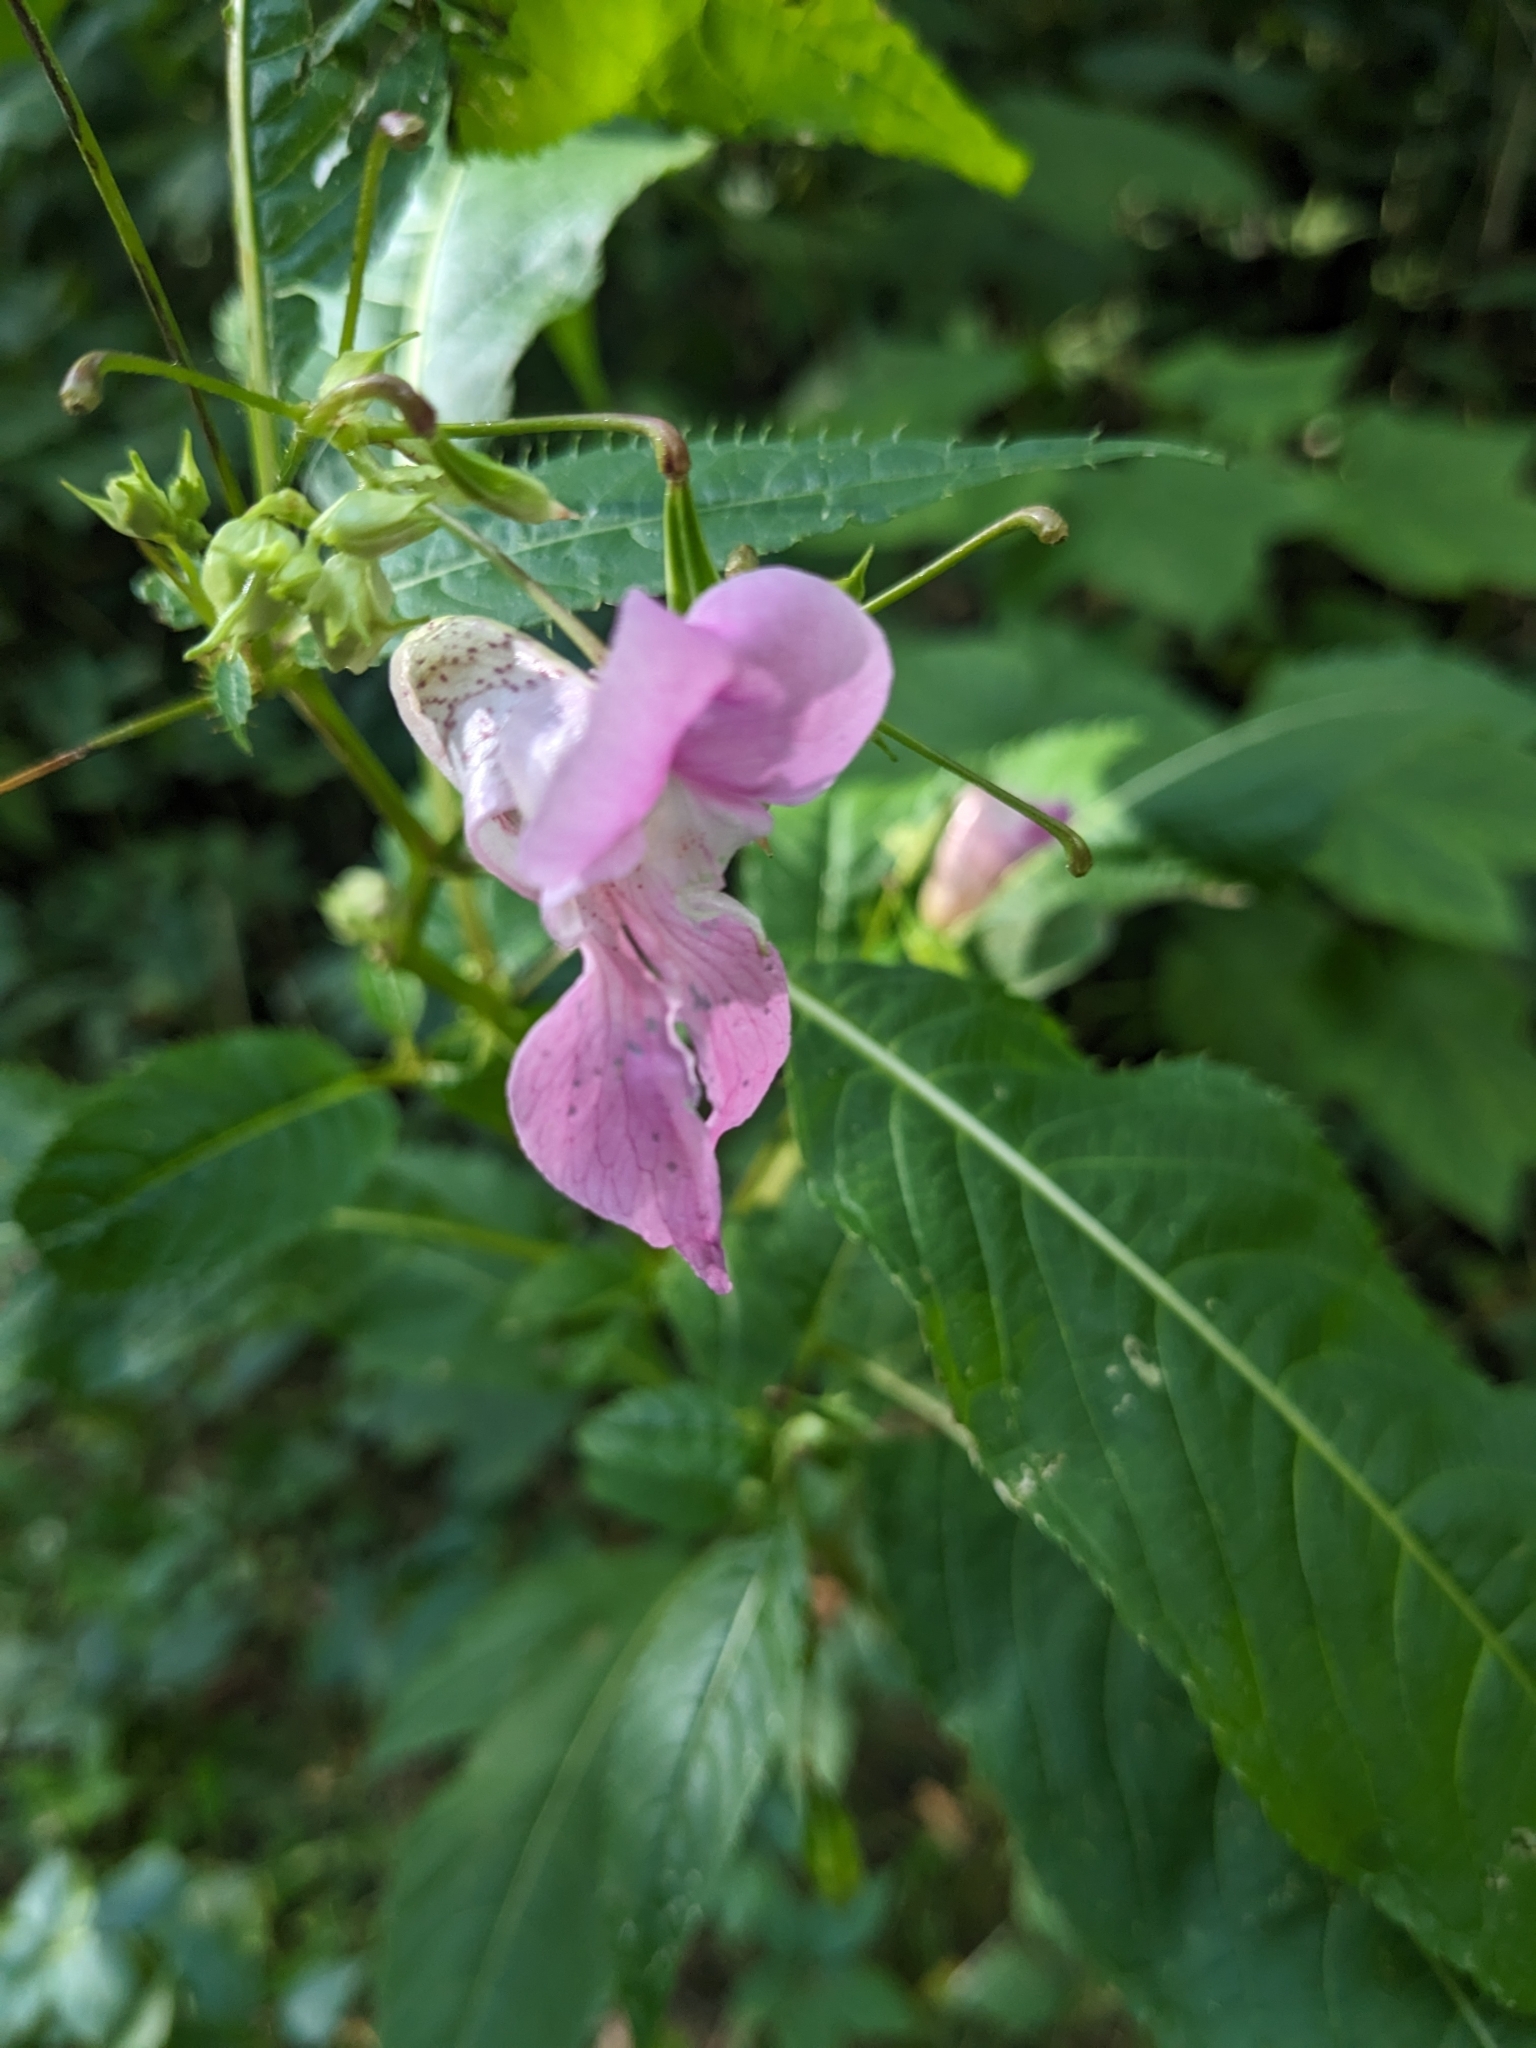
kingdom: Plantae
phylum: Tracheophyta
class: Magnoliopsida
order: Ericales
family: Balsaminaceae
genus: Impatiens
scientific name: Impatiens glandulifera
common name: Himalayan balsam
